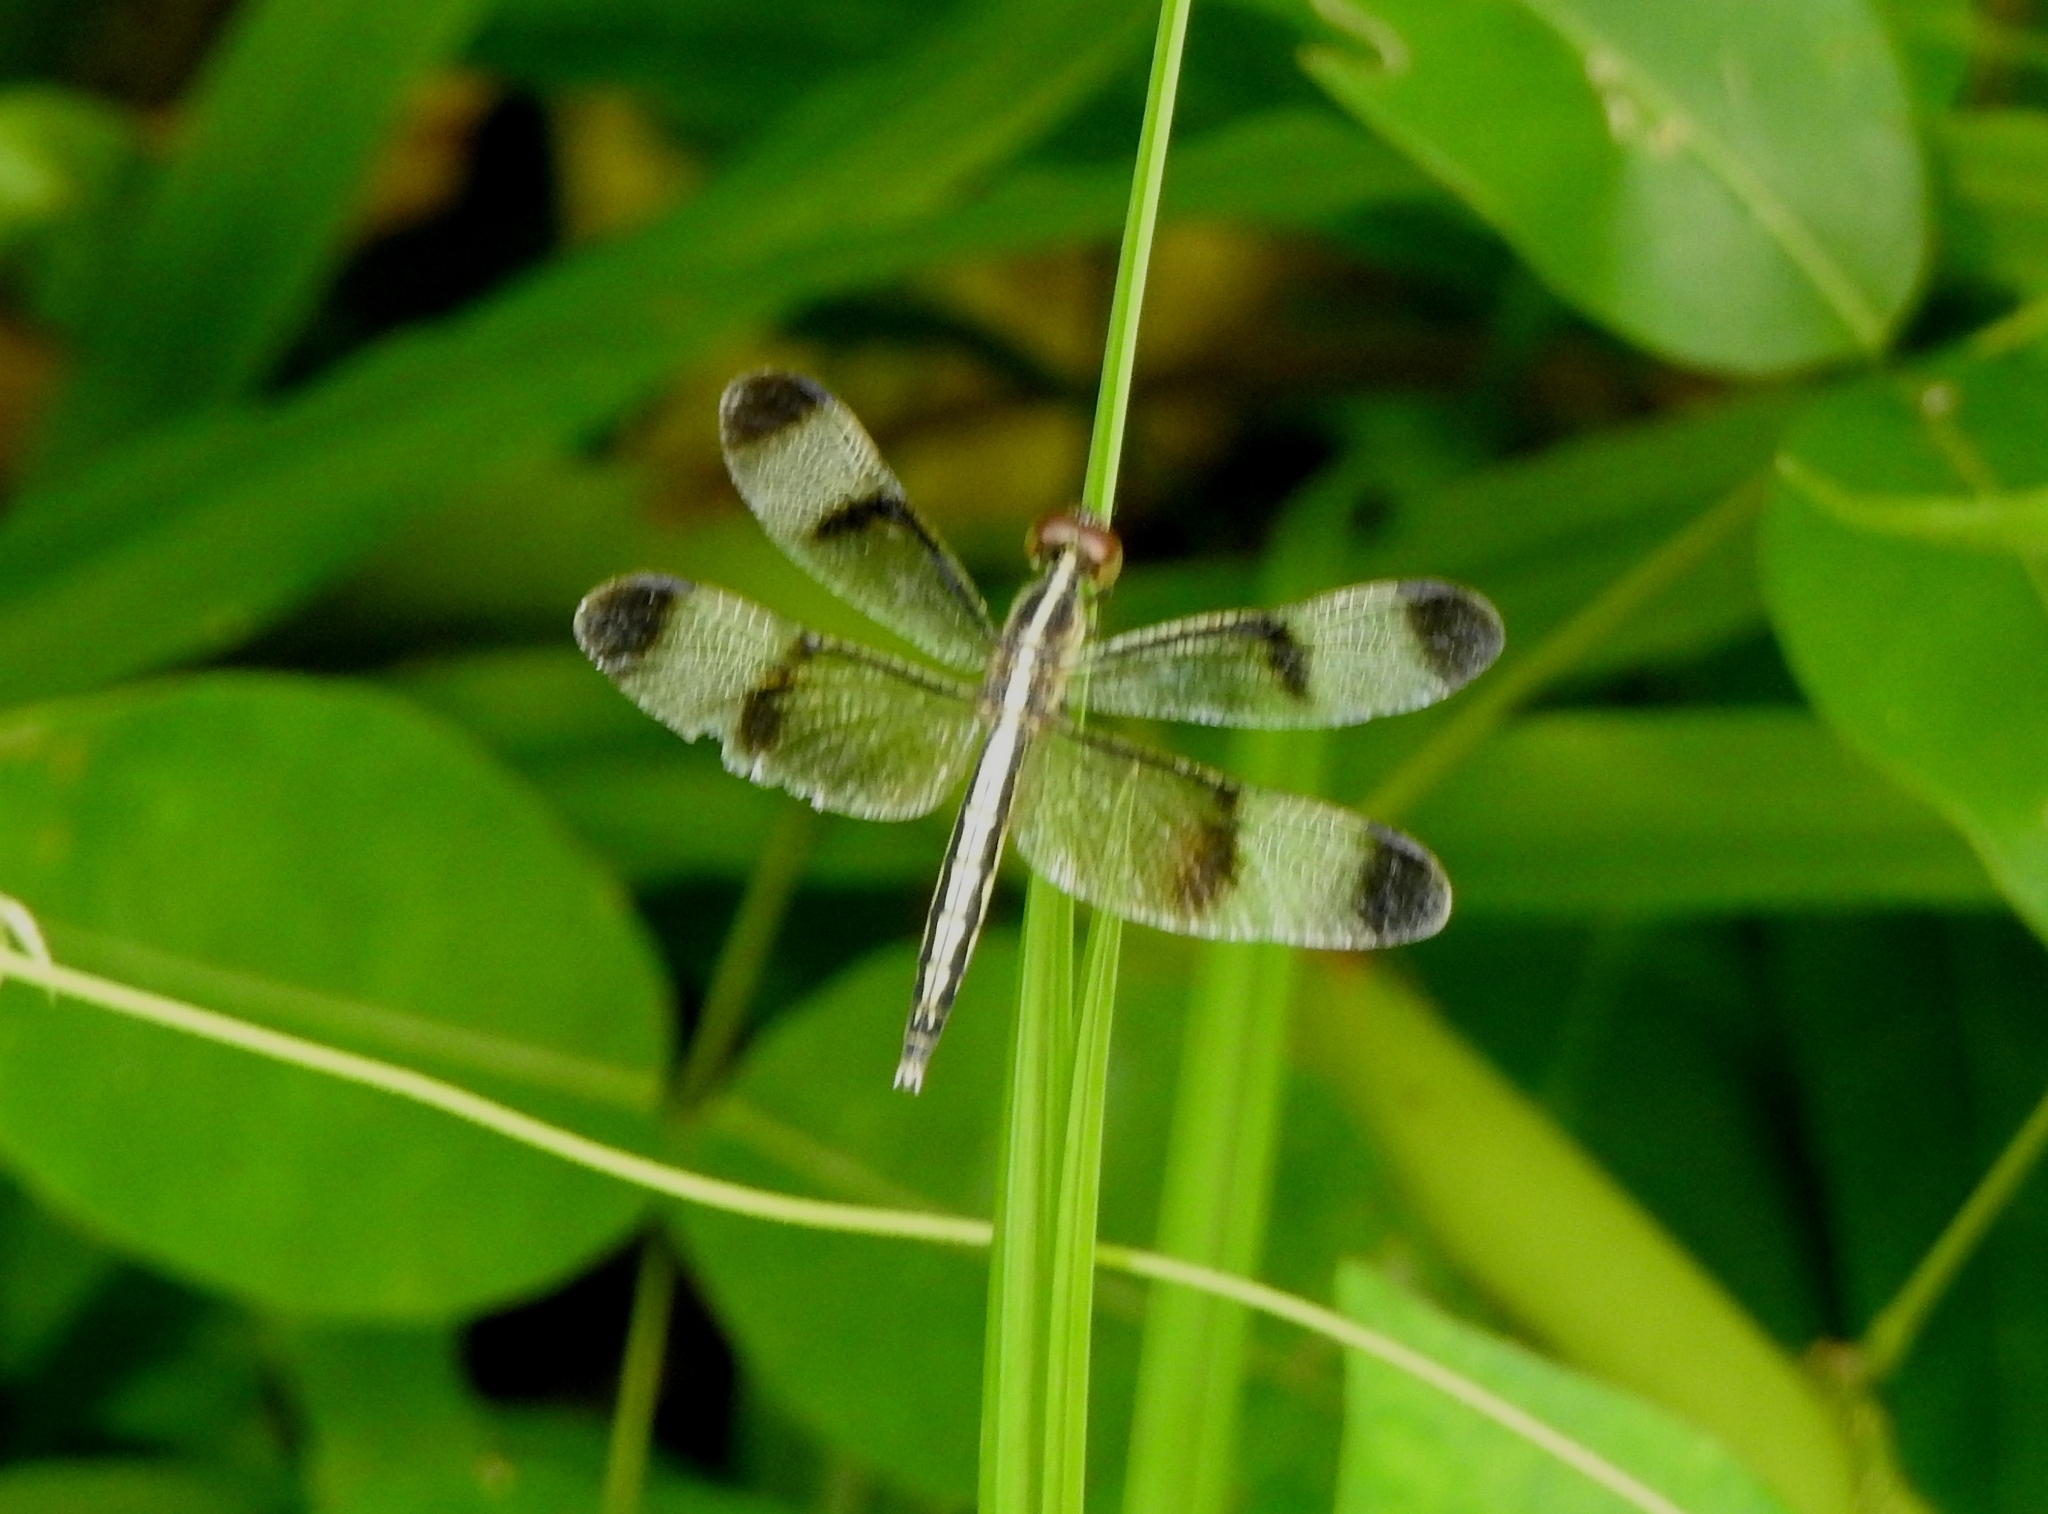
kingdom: Animalia
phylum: Arthropoda
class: Insecta
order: Odonata
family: Libellulidae
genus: Neurothemis
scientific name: Neurothemis tullia
